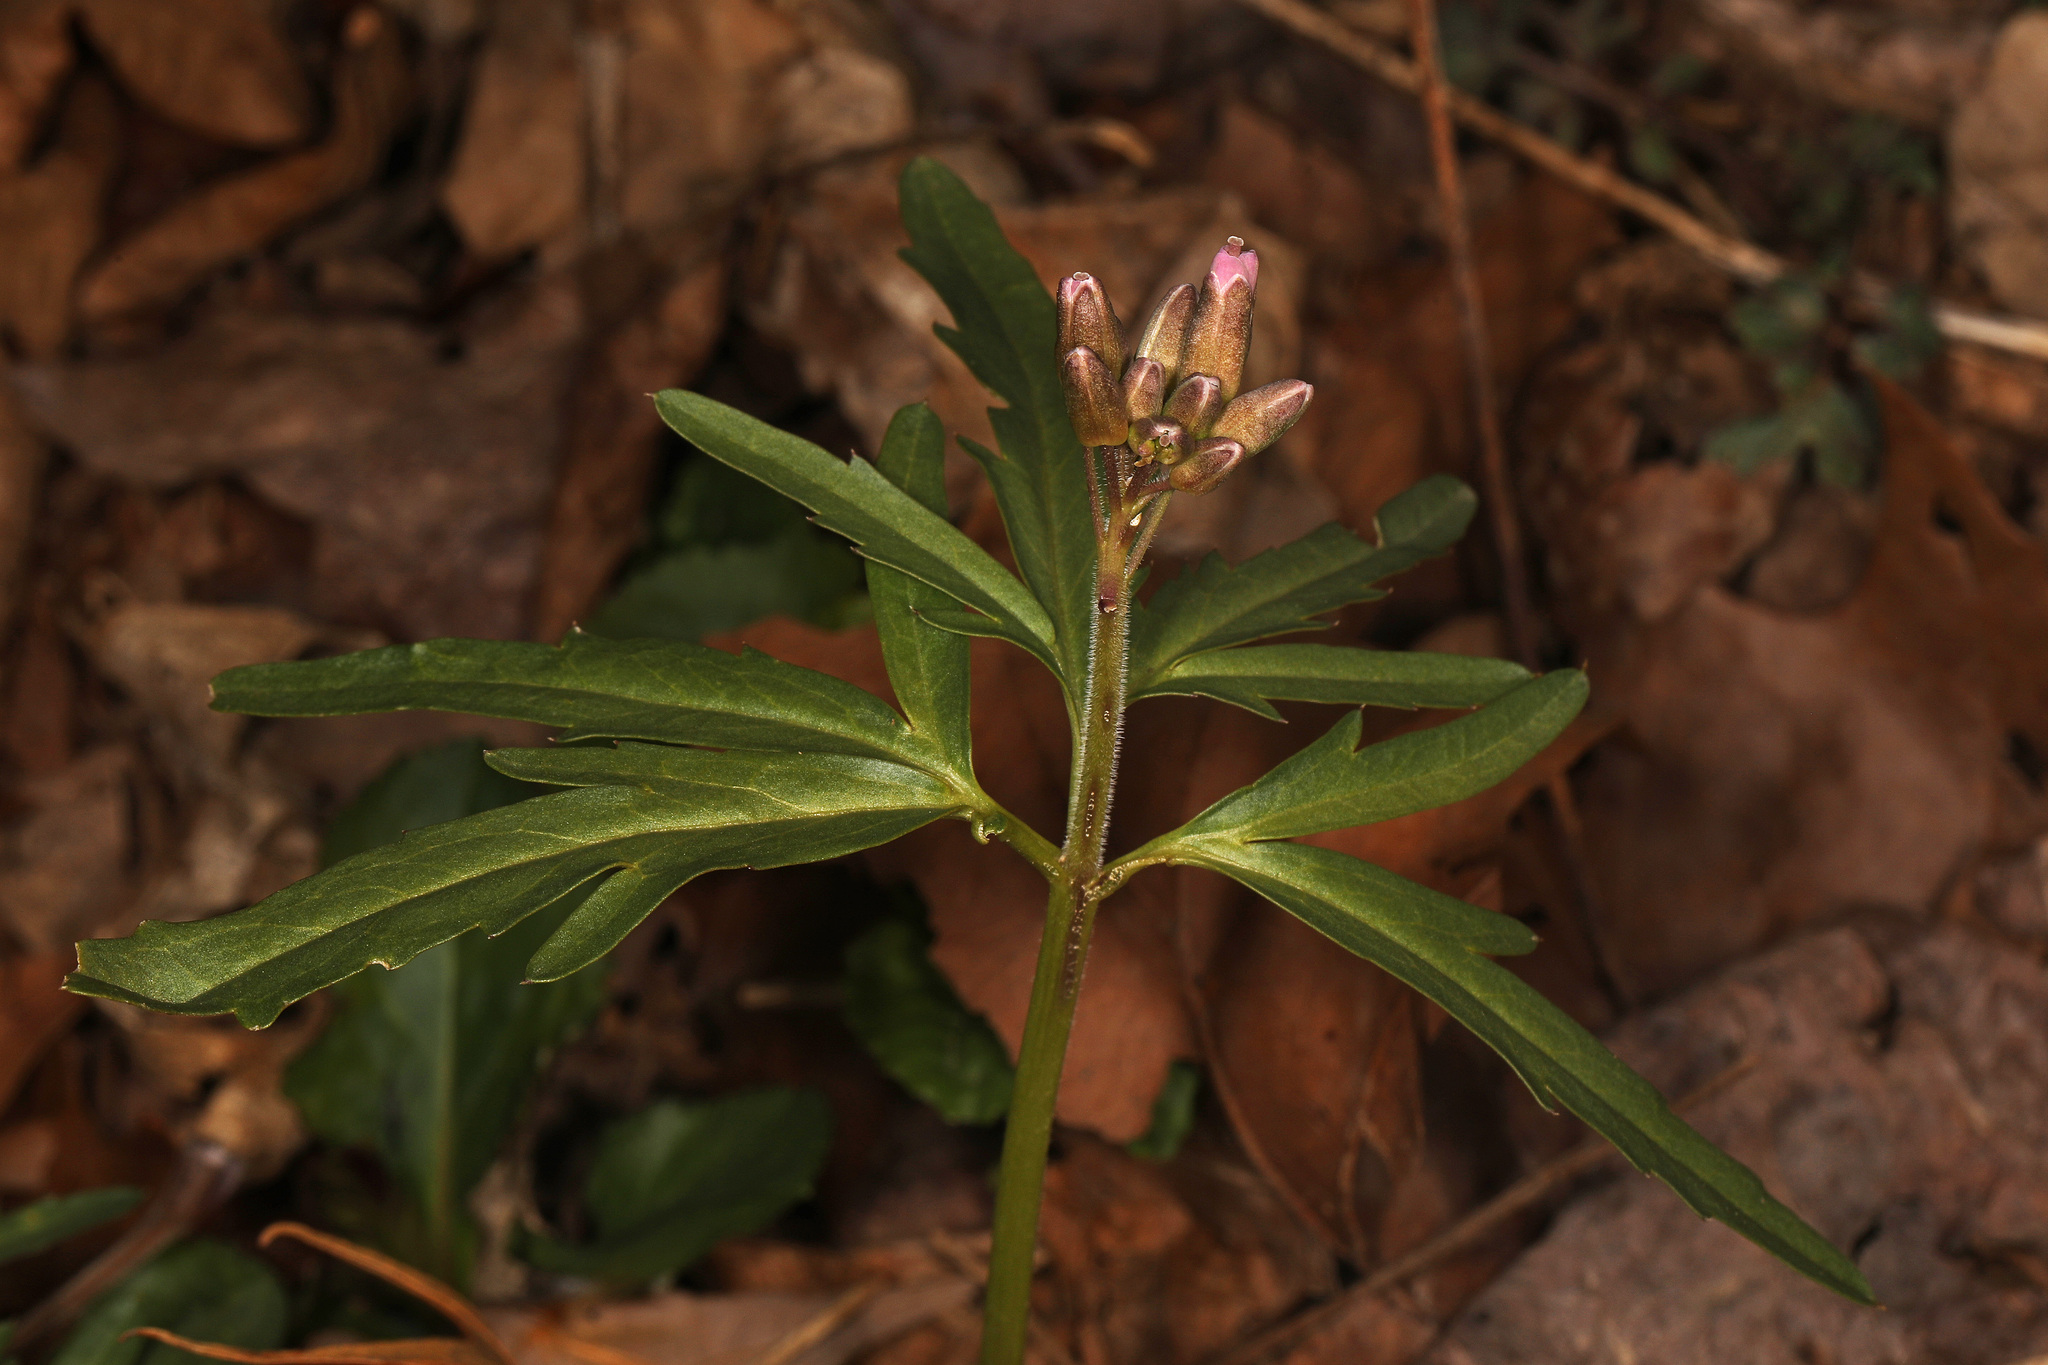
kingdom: Plantae
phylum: Tracheophyta
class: Magnoliopsida
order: Brassicales
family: Brassicaceae
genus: Cardamine
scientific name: Cardamine concatenata
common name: Cut-leaf toothcup
